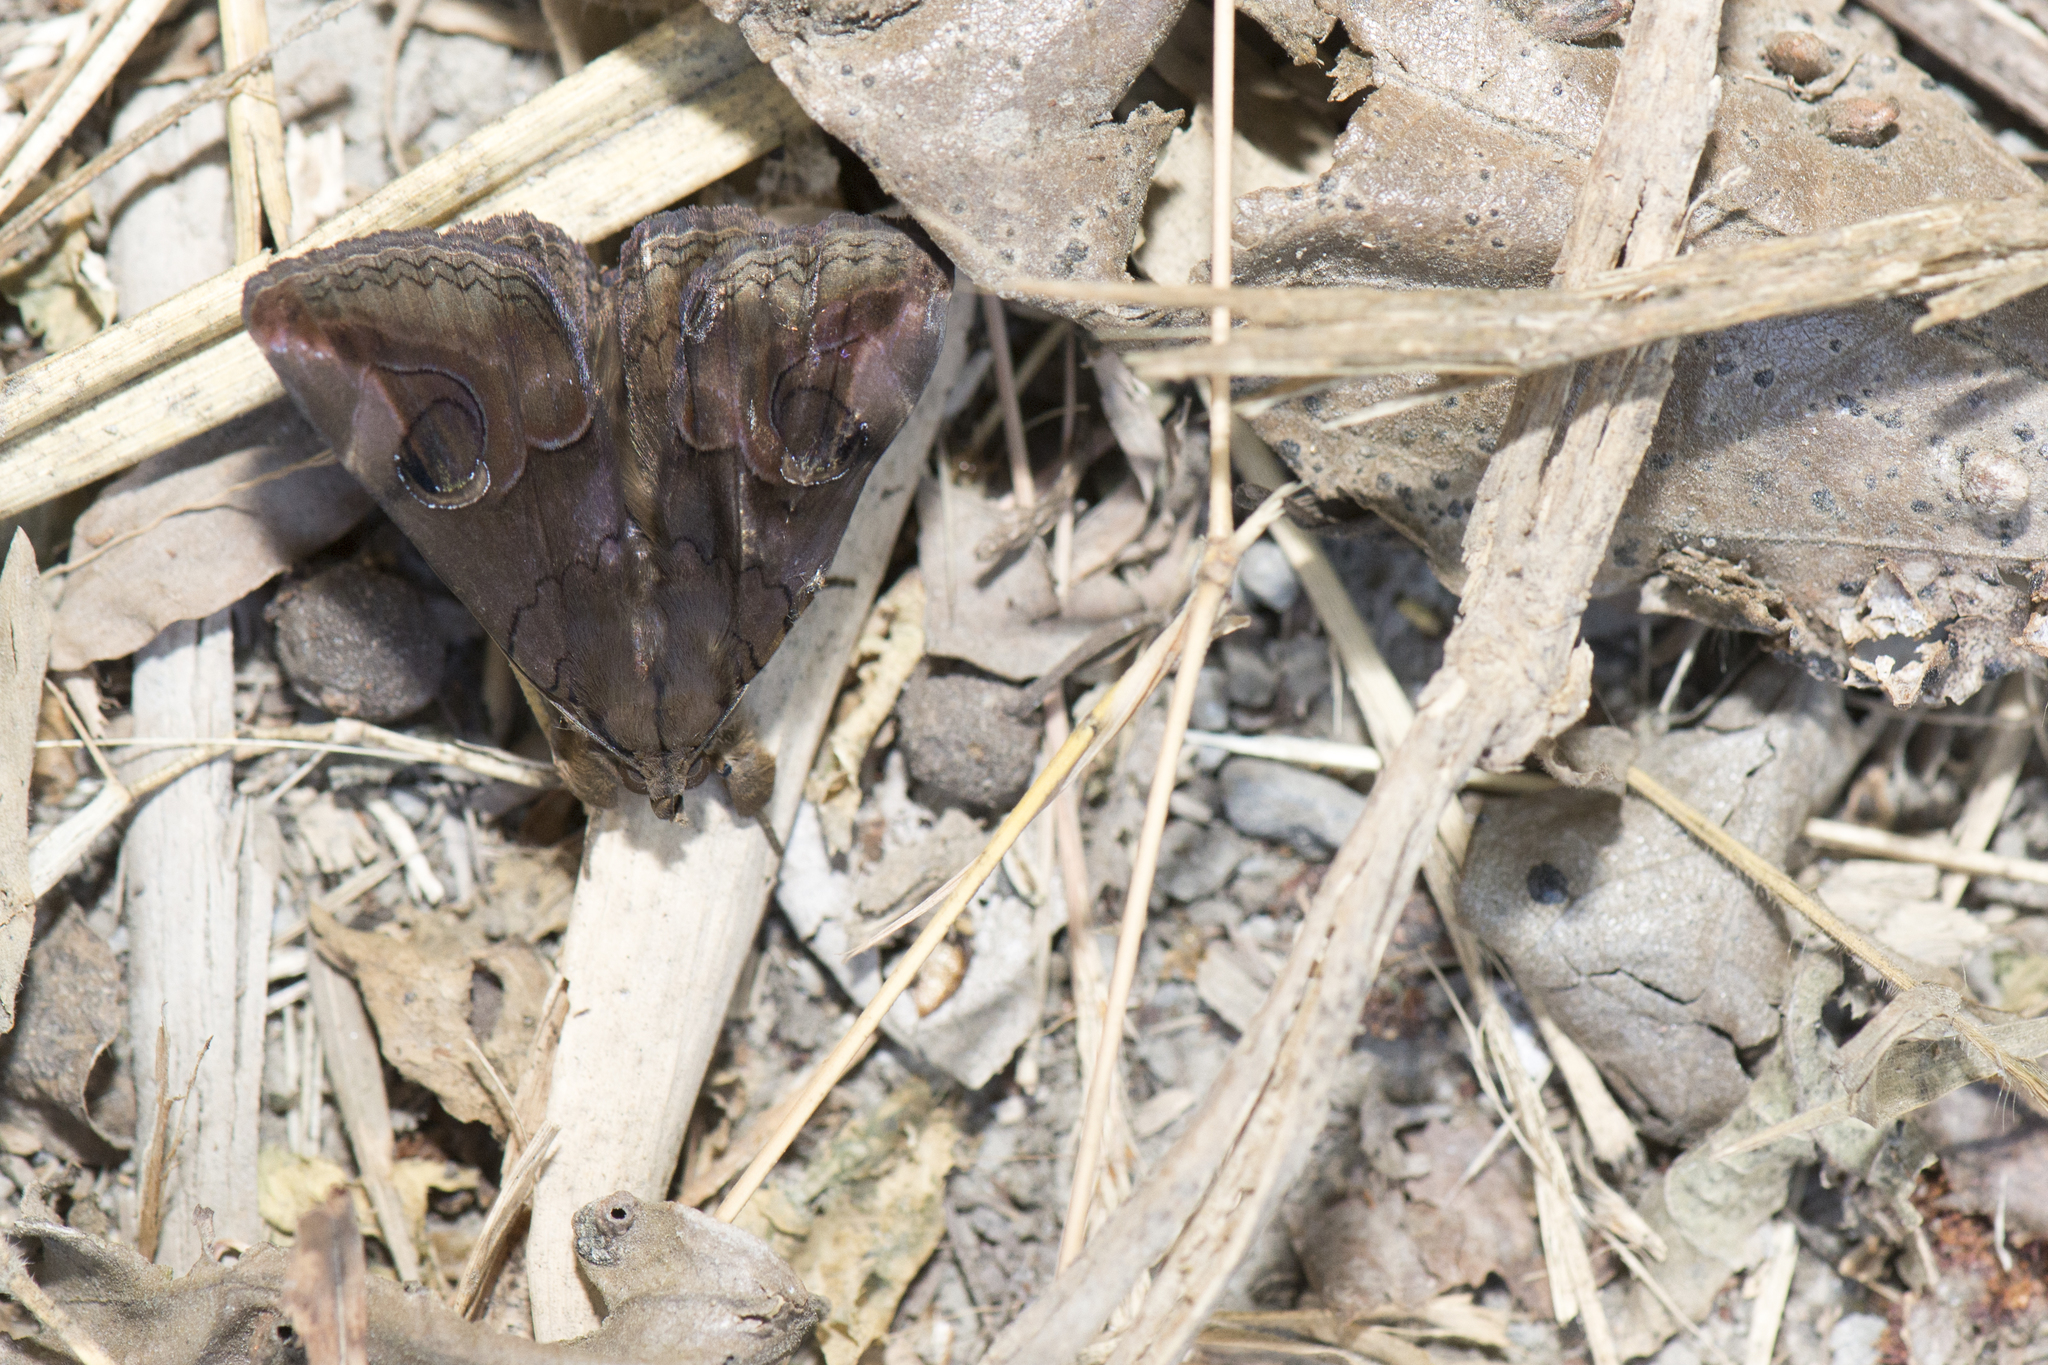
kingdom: Animalia
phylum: Arthropoda
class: Insecta
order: Lepidoptera
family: Erebidae
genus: Ommatophora
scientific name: Ommatophora luminosa
